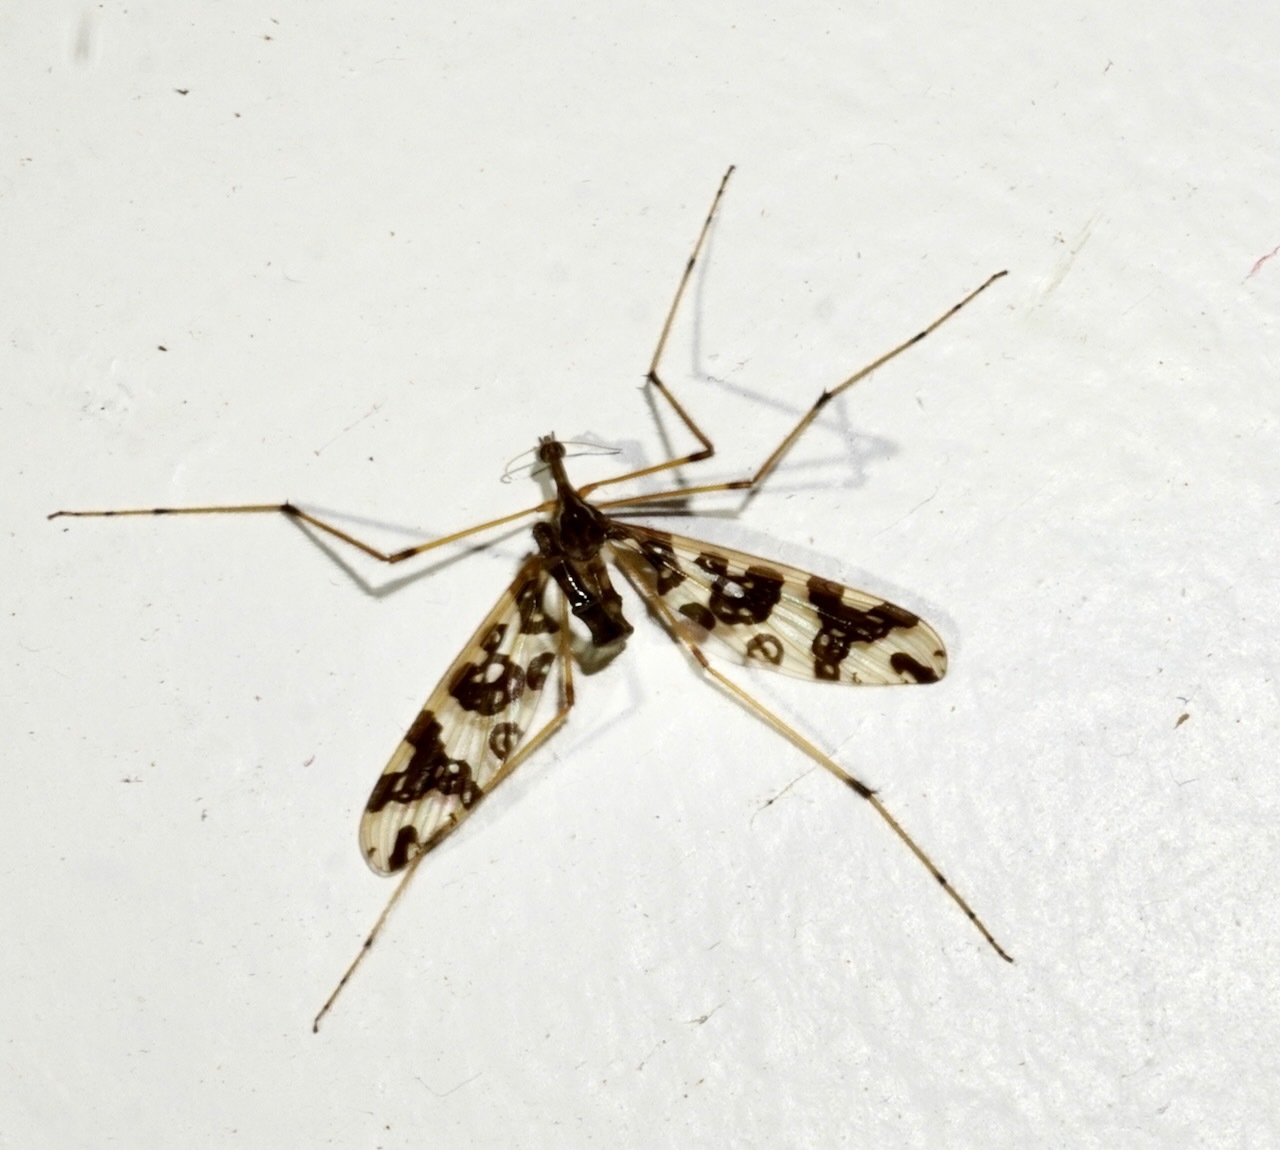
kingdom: Animalia
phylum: Arthropoda
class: Insecta
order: Diptera
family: Tanyderidae
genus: Tanyderus
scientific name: Tanyderus annuliferus
